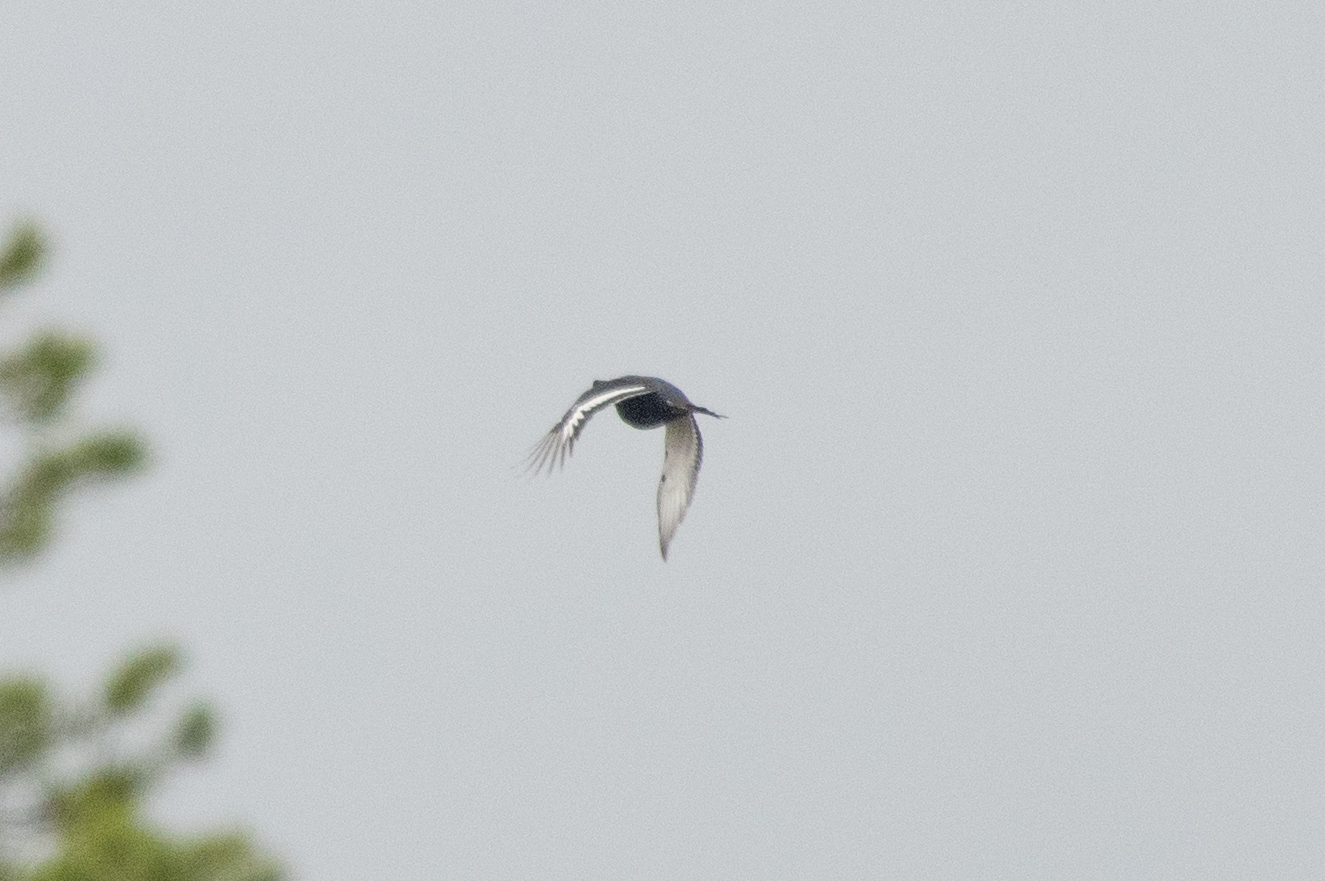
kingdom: Animalia
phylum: Chordata
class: Aves
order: Galliformes
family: Phasianidae
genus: Lyrurus
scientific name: Lyrurus tetrix
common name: Black grouse
